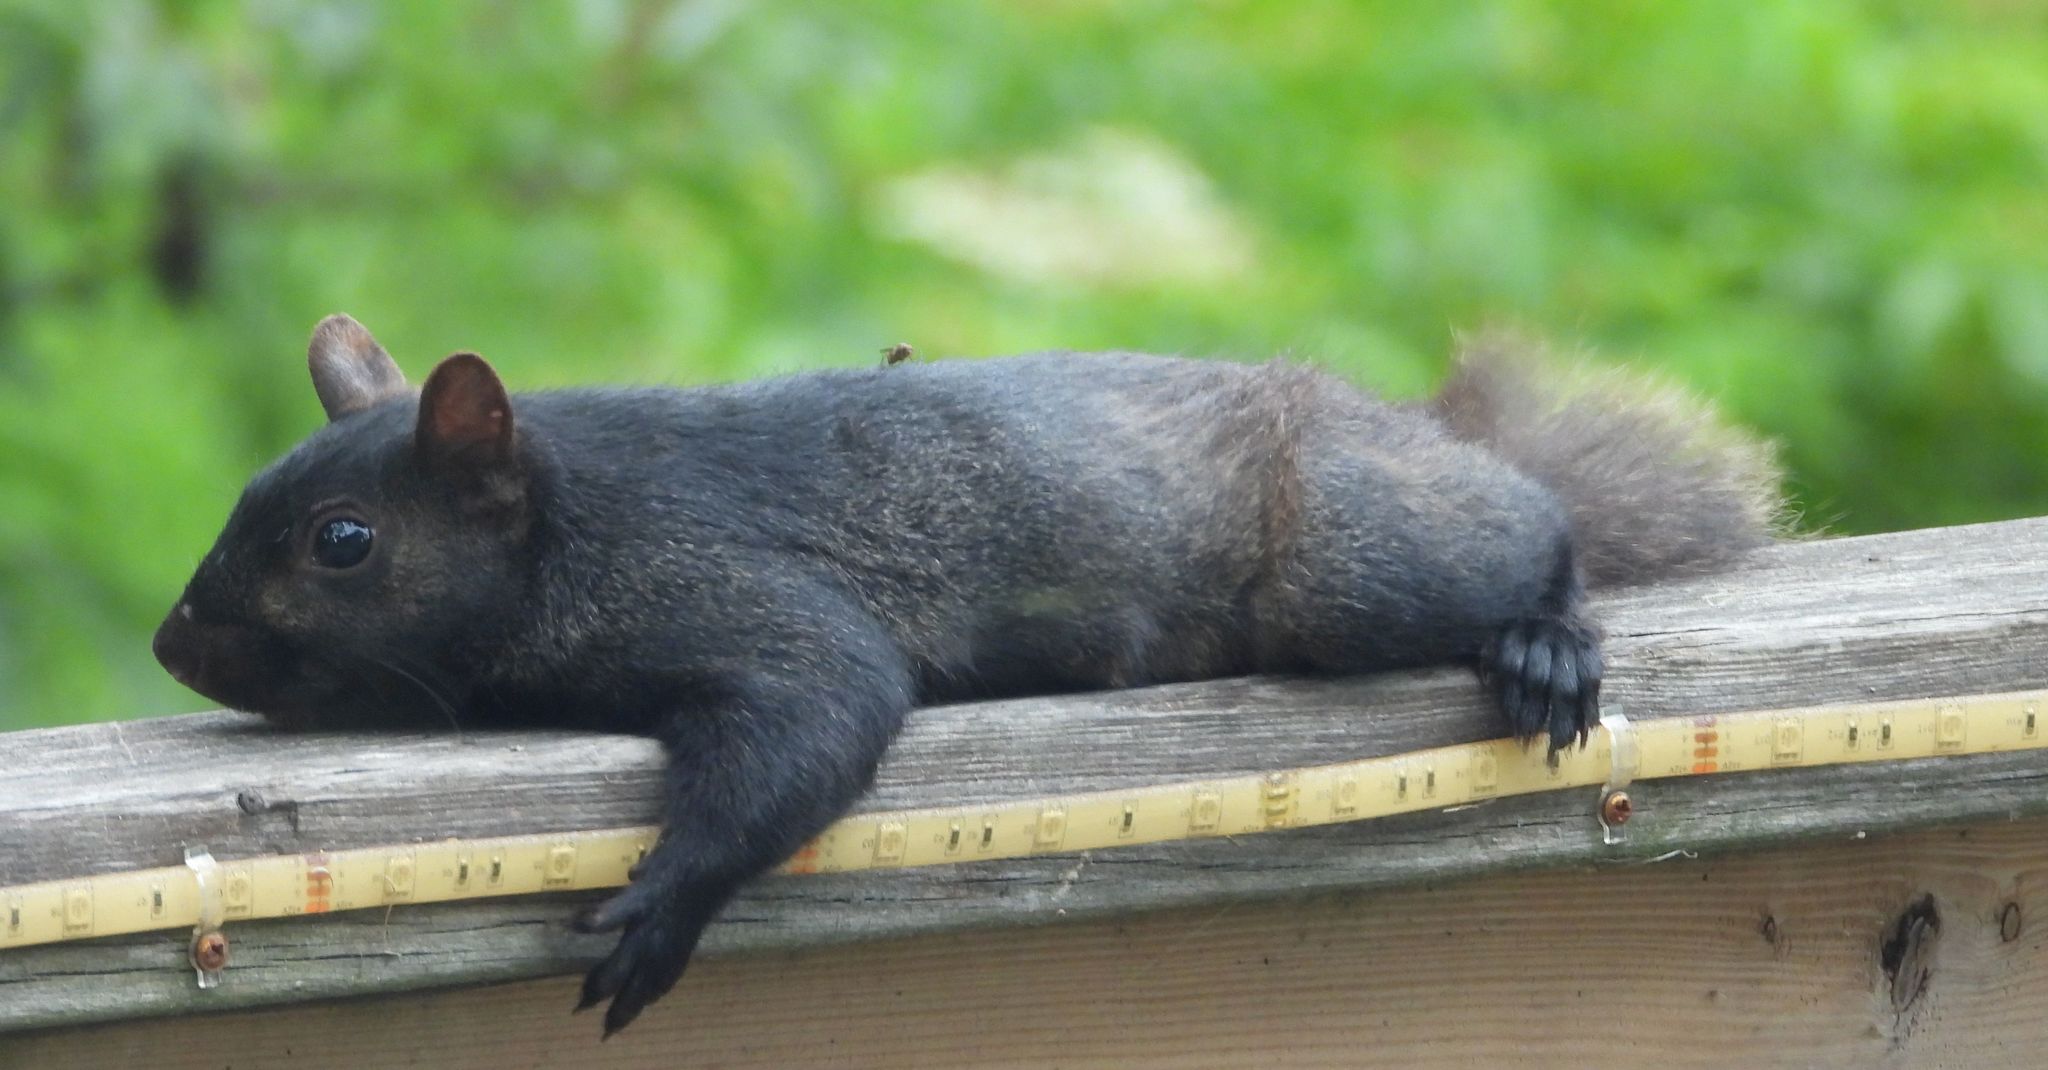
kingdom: Animalia
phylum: Chordata
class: Mammalia
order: Rodentia
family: Sciuridae
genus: Sciurus
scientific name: Sciurus carolinensis
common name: Eastern gray squirrel
